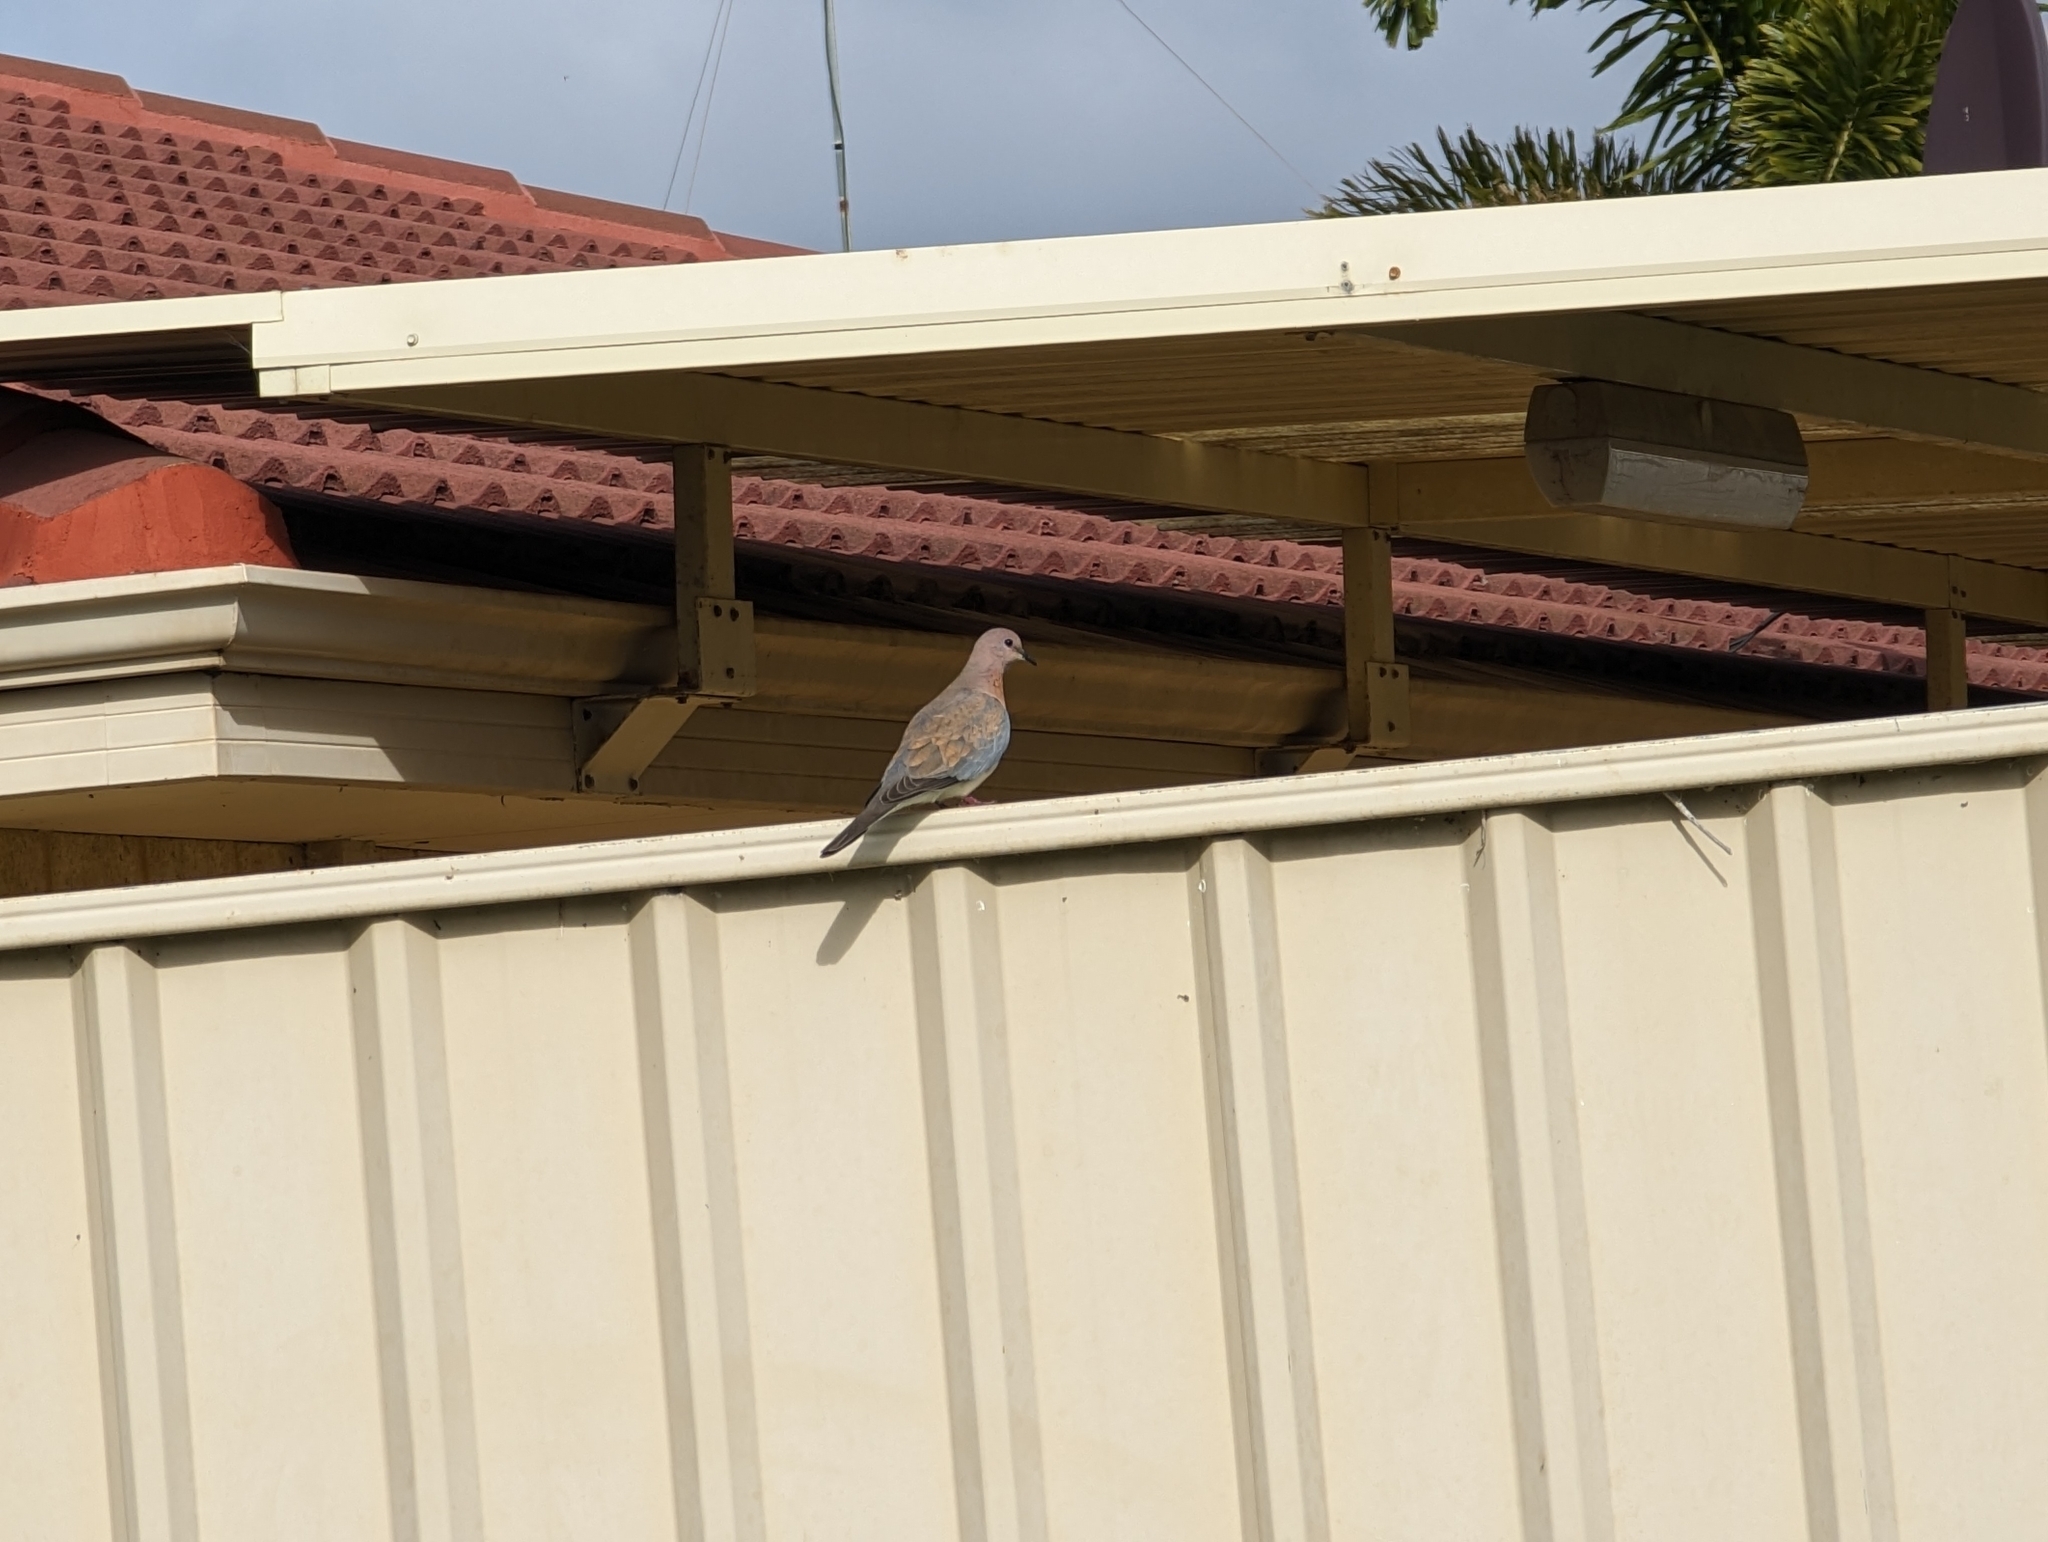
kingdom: Animalia
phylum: Chordata
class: Aves
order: Columbiformes
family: Columbidae
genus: Spilopelia
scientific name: Spilopelia senegalensis
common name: Laughing dove
